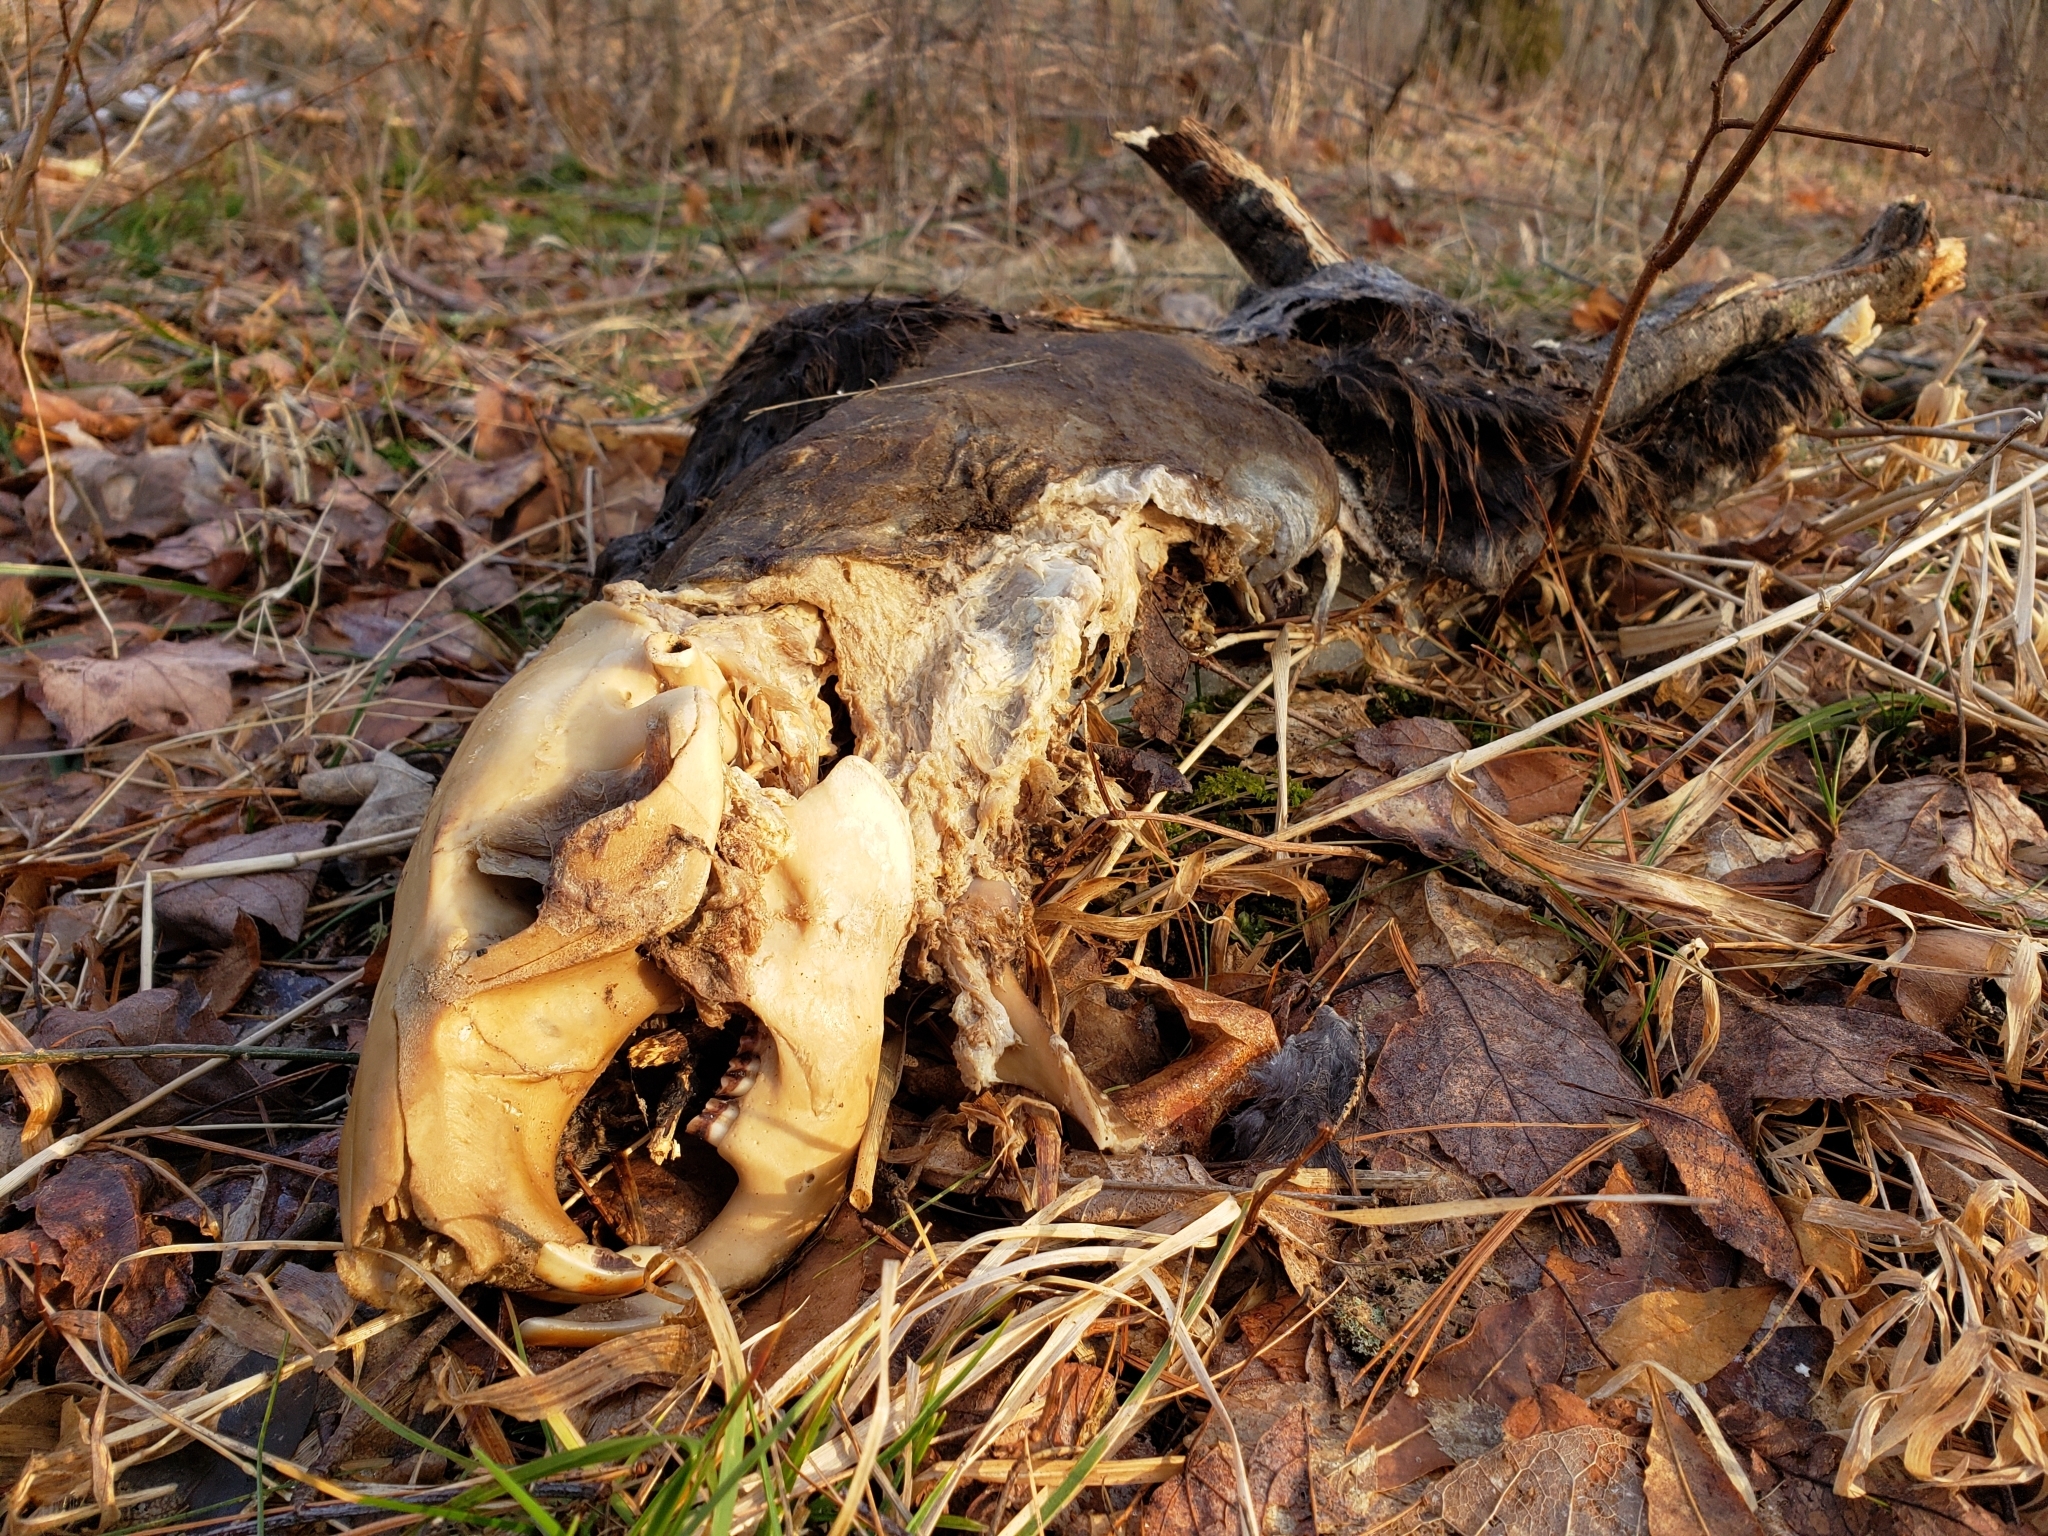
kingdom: Animalia
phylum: Chordata
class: Mammalia
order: Rodentia
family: Castoridae
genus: Castor
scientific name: Castor canadensis
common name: American beaver
